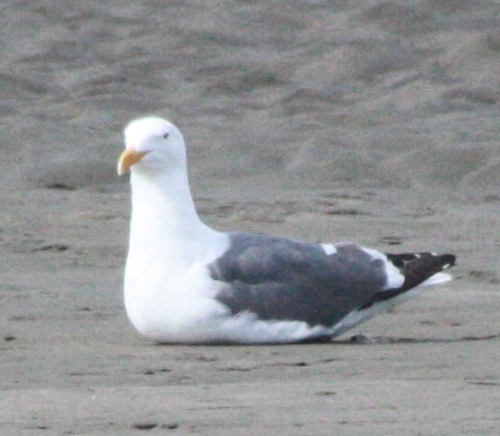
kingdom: Animalia
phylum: Chordata
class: Aves
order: Charadriiformes
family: Laridae
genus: Larus
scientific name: Larus occidentalis
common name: Western gull
